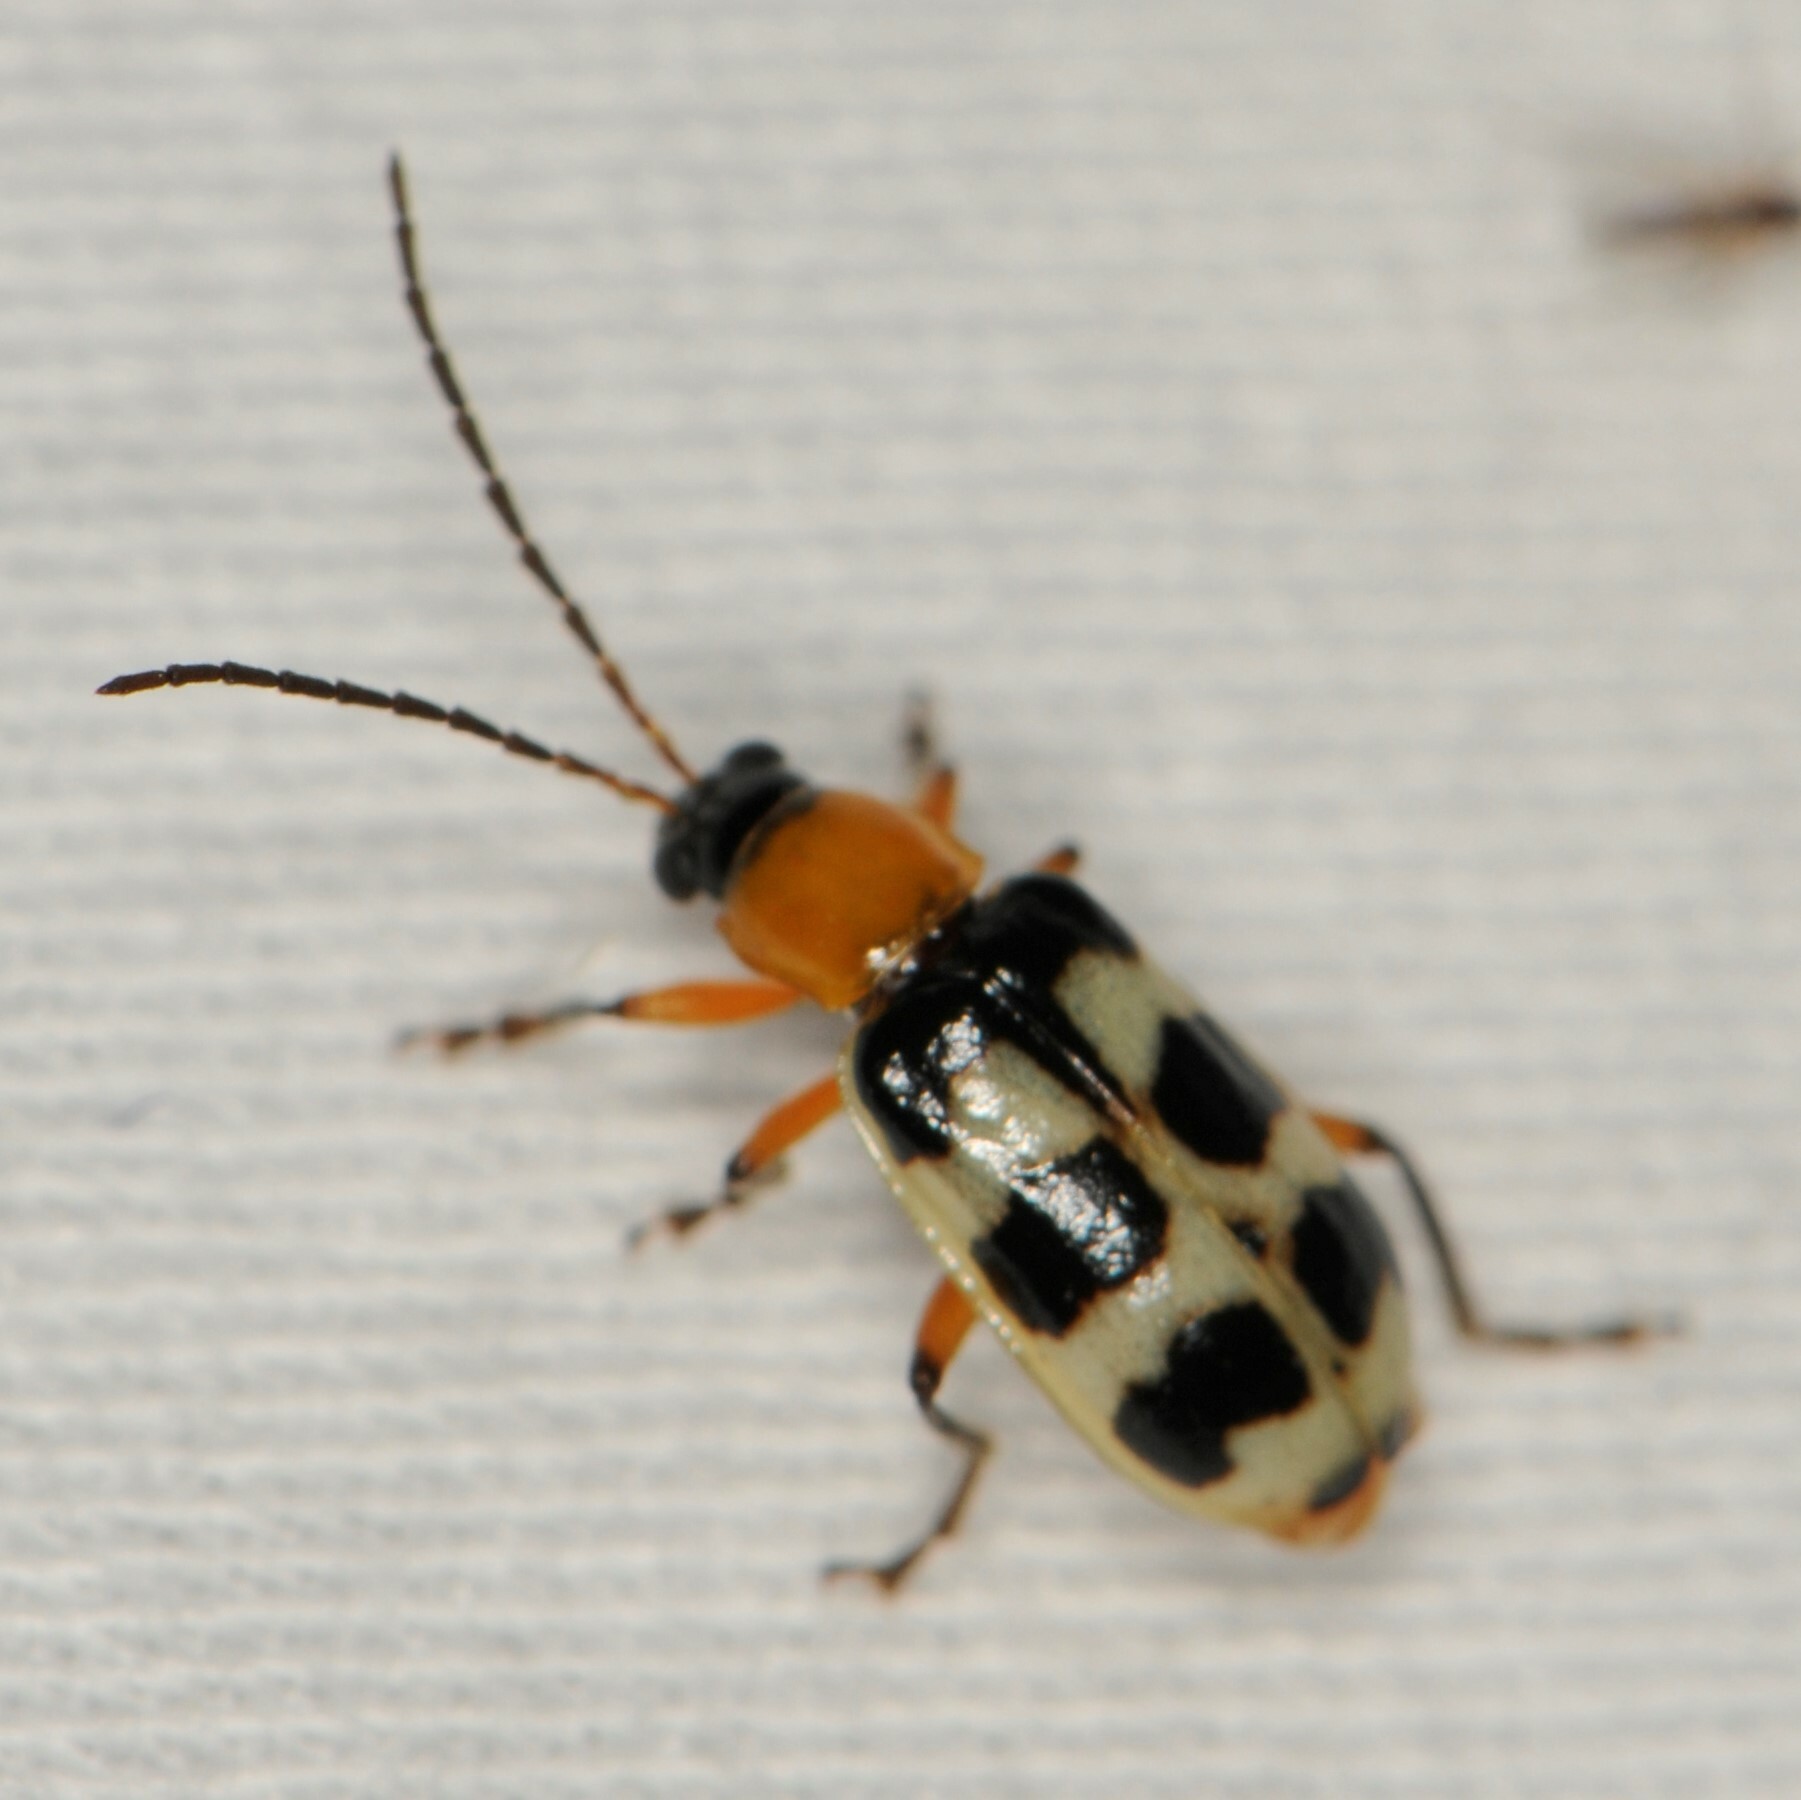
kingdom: Animalia
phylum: Arthropoda
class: Insecta
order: Coleoptera
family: Chrysomelidae
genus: Paranapiacaba
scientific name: Paranapiacaba tricincta
